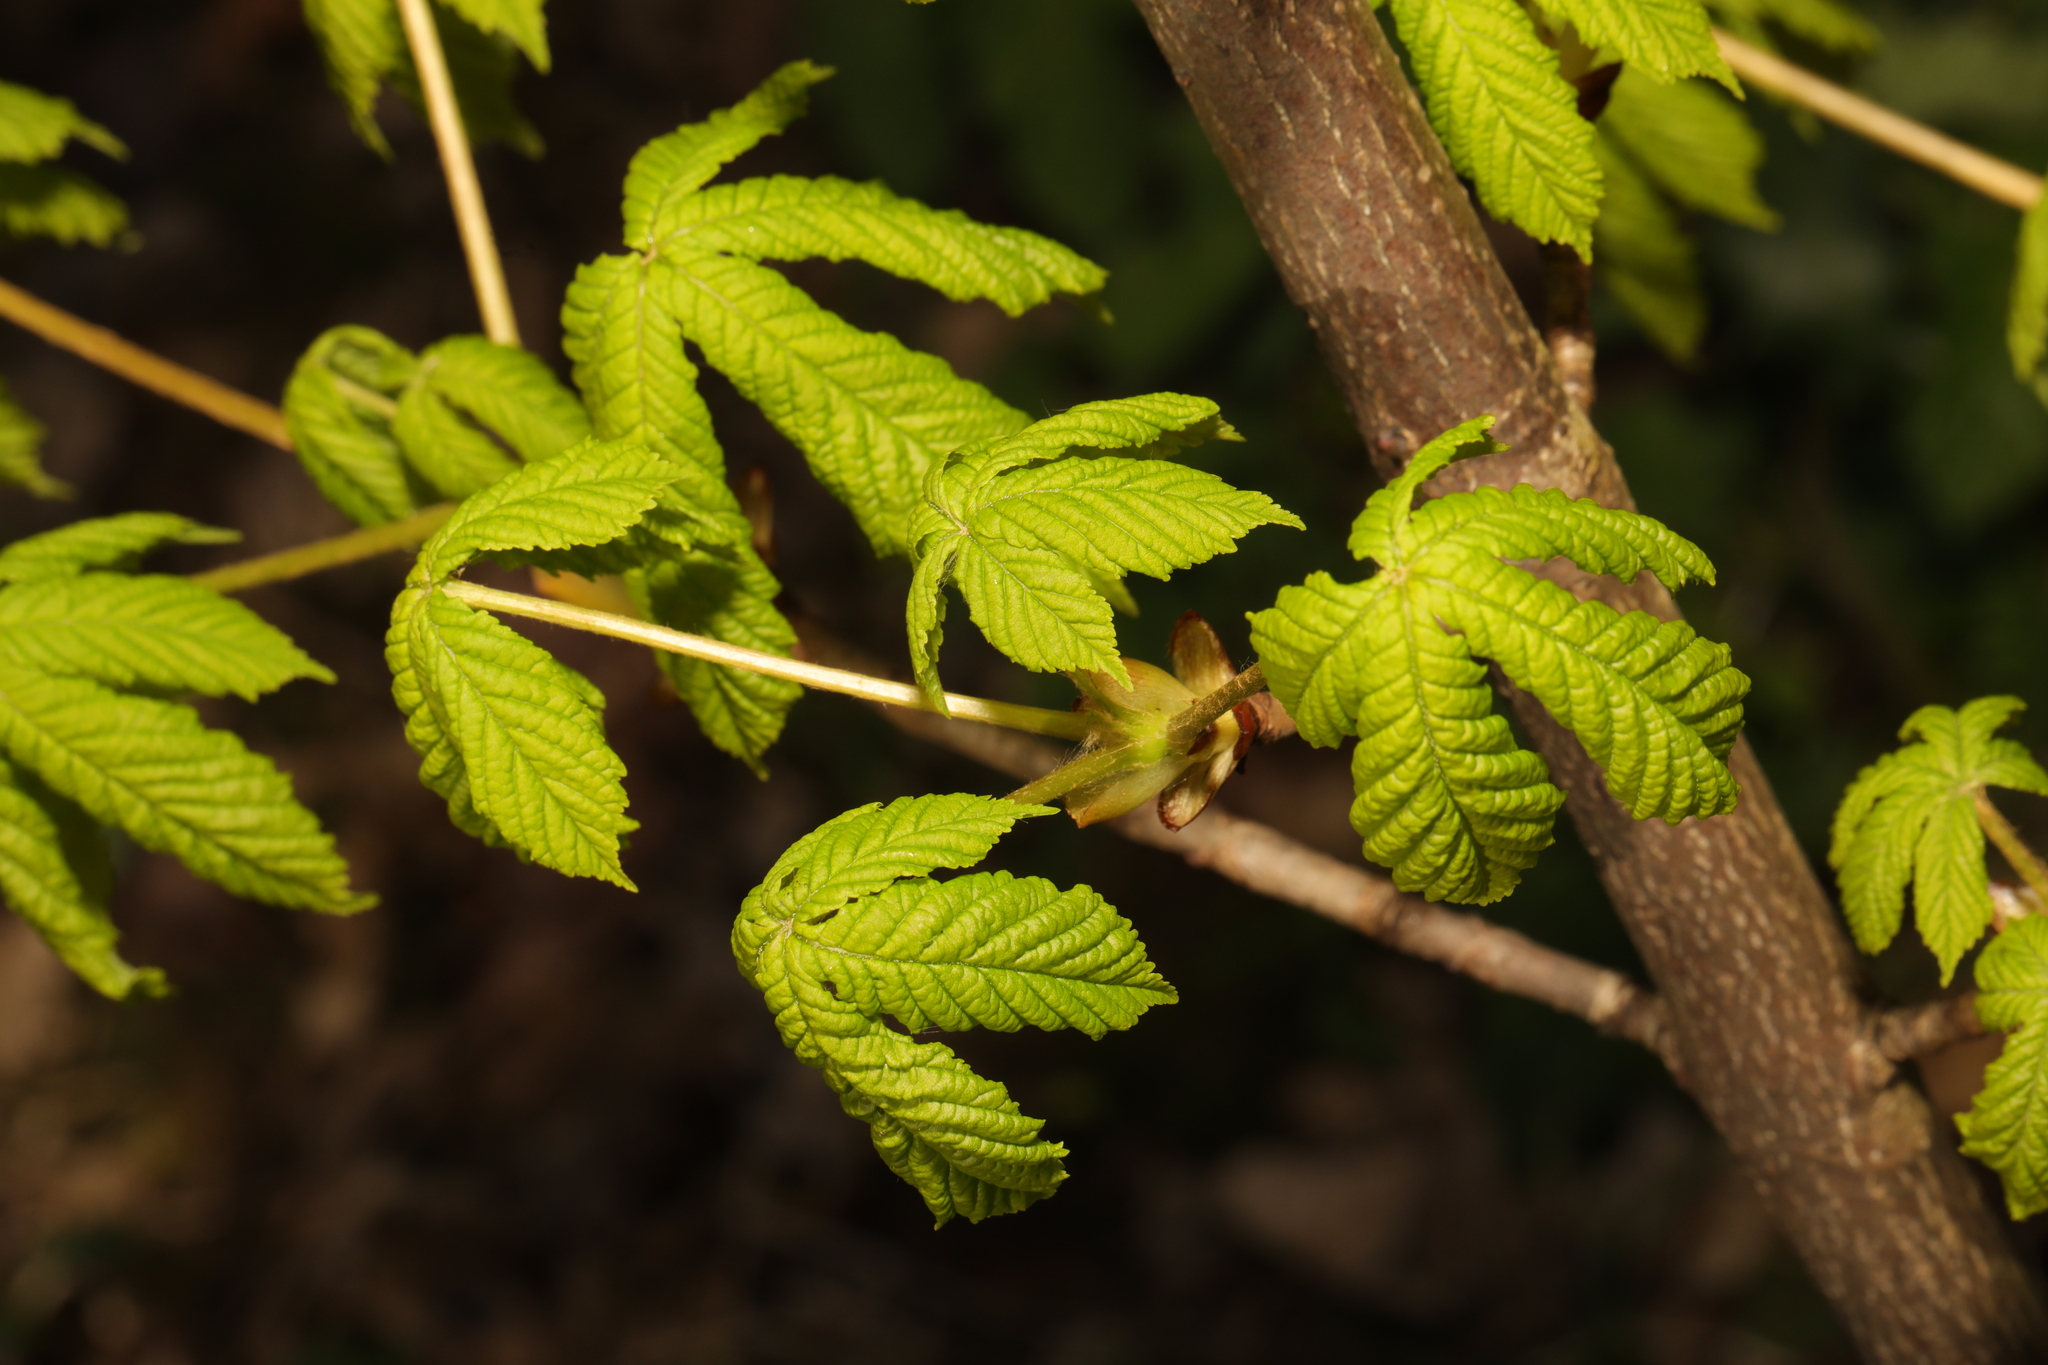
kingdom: Plantae
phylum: Tracheophyta
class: Magnoliopsida
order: Sapindales
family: Sapindaceae
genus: Aesculus
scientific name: Aesculus hippocastanum
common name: Horse-chestnut
